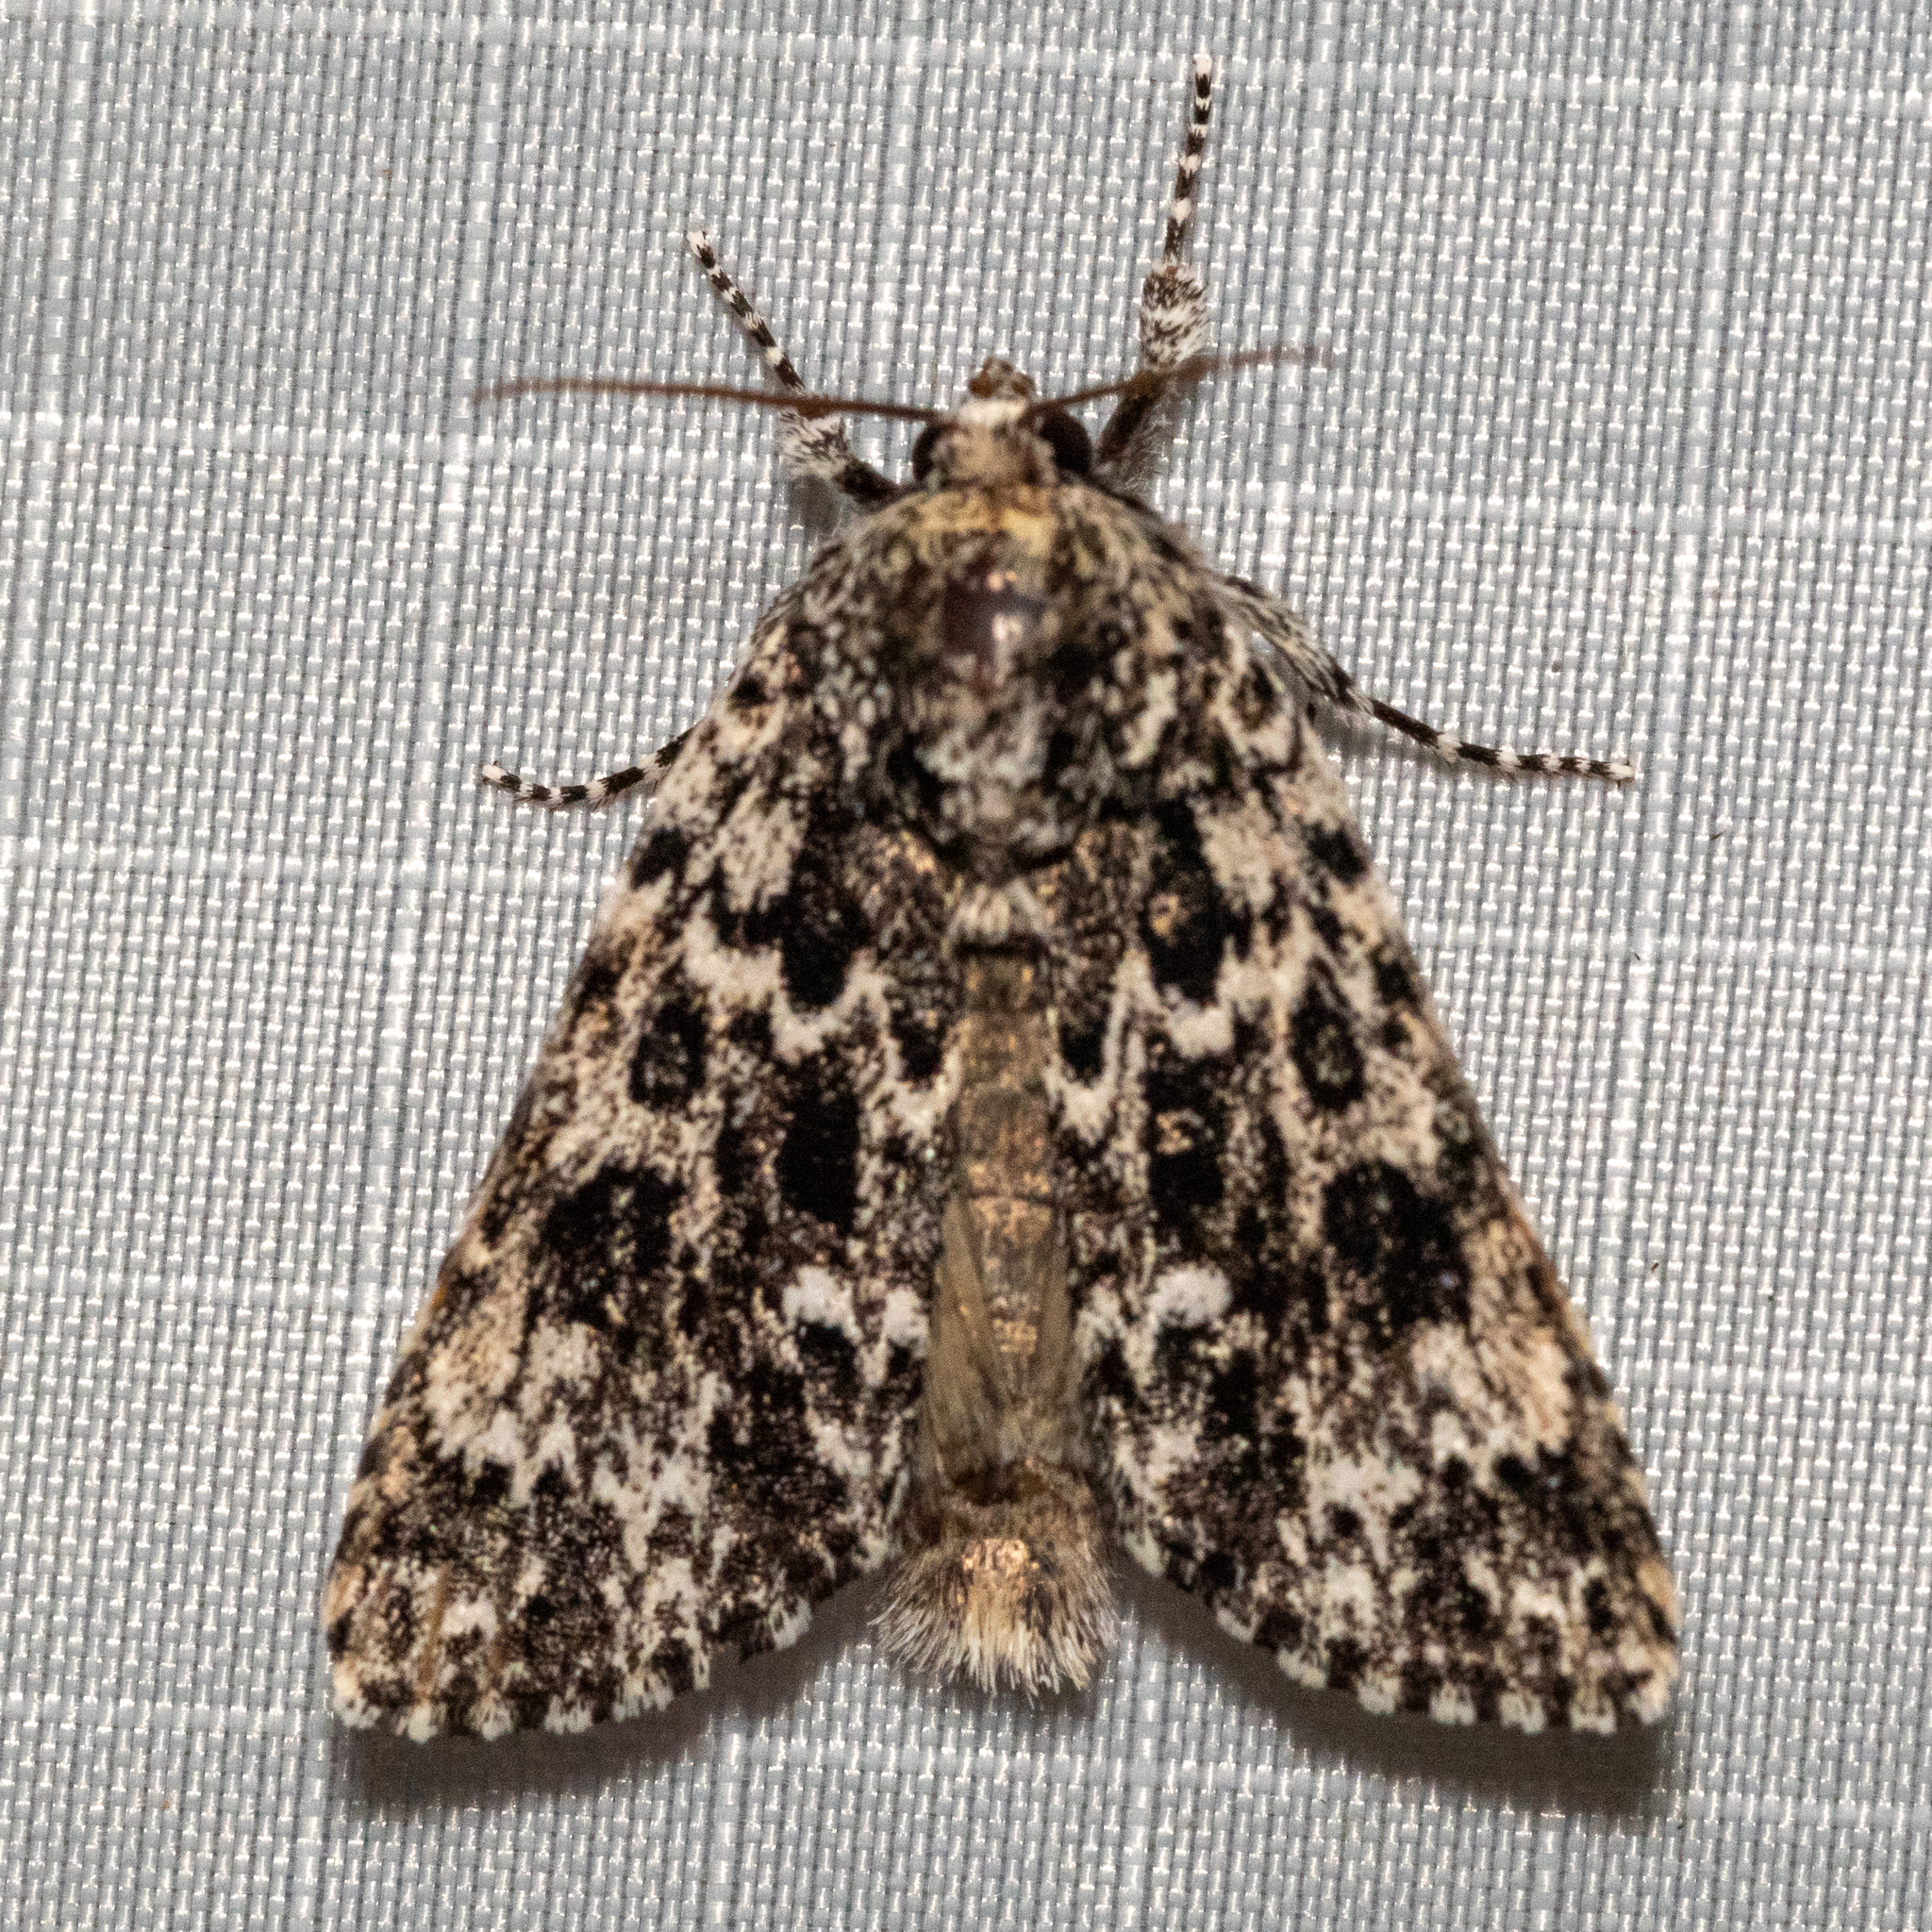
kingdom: Animalia
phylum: Arthropoda
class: Insecta
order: Lepidoptera
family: Noctuidae
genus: Acronicta
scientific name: Acronicta noctivaga
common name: Night-wandering dagger
